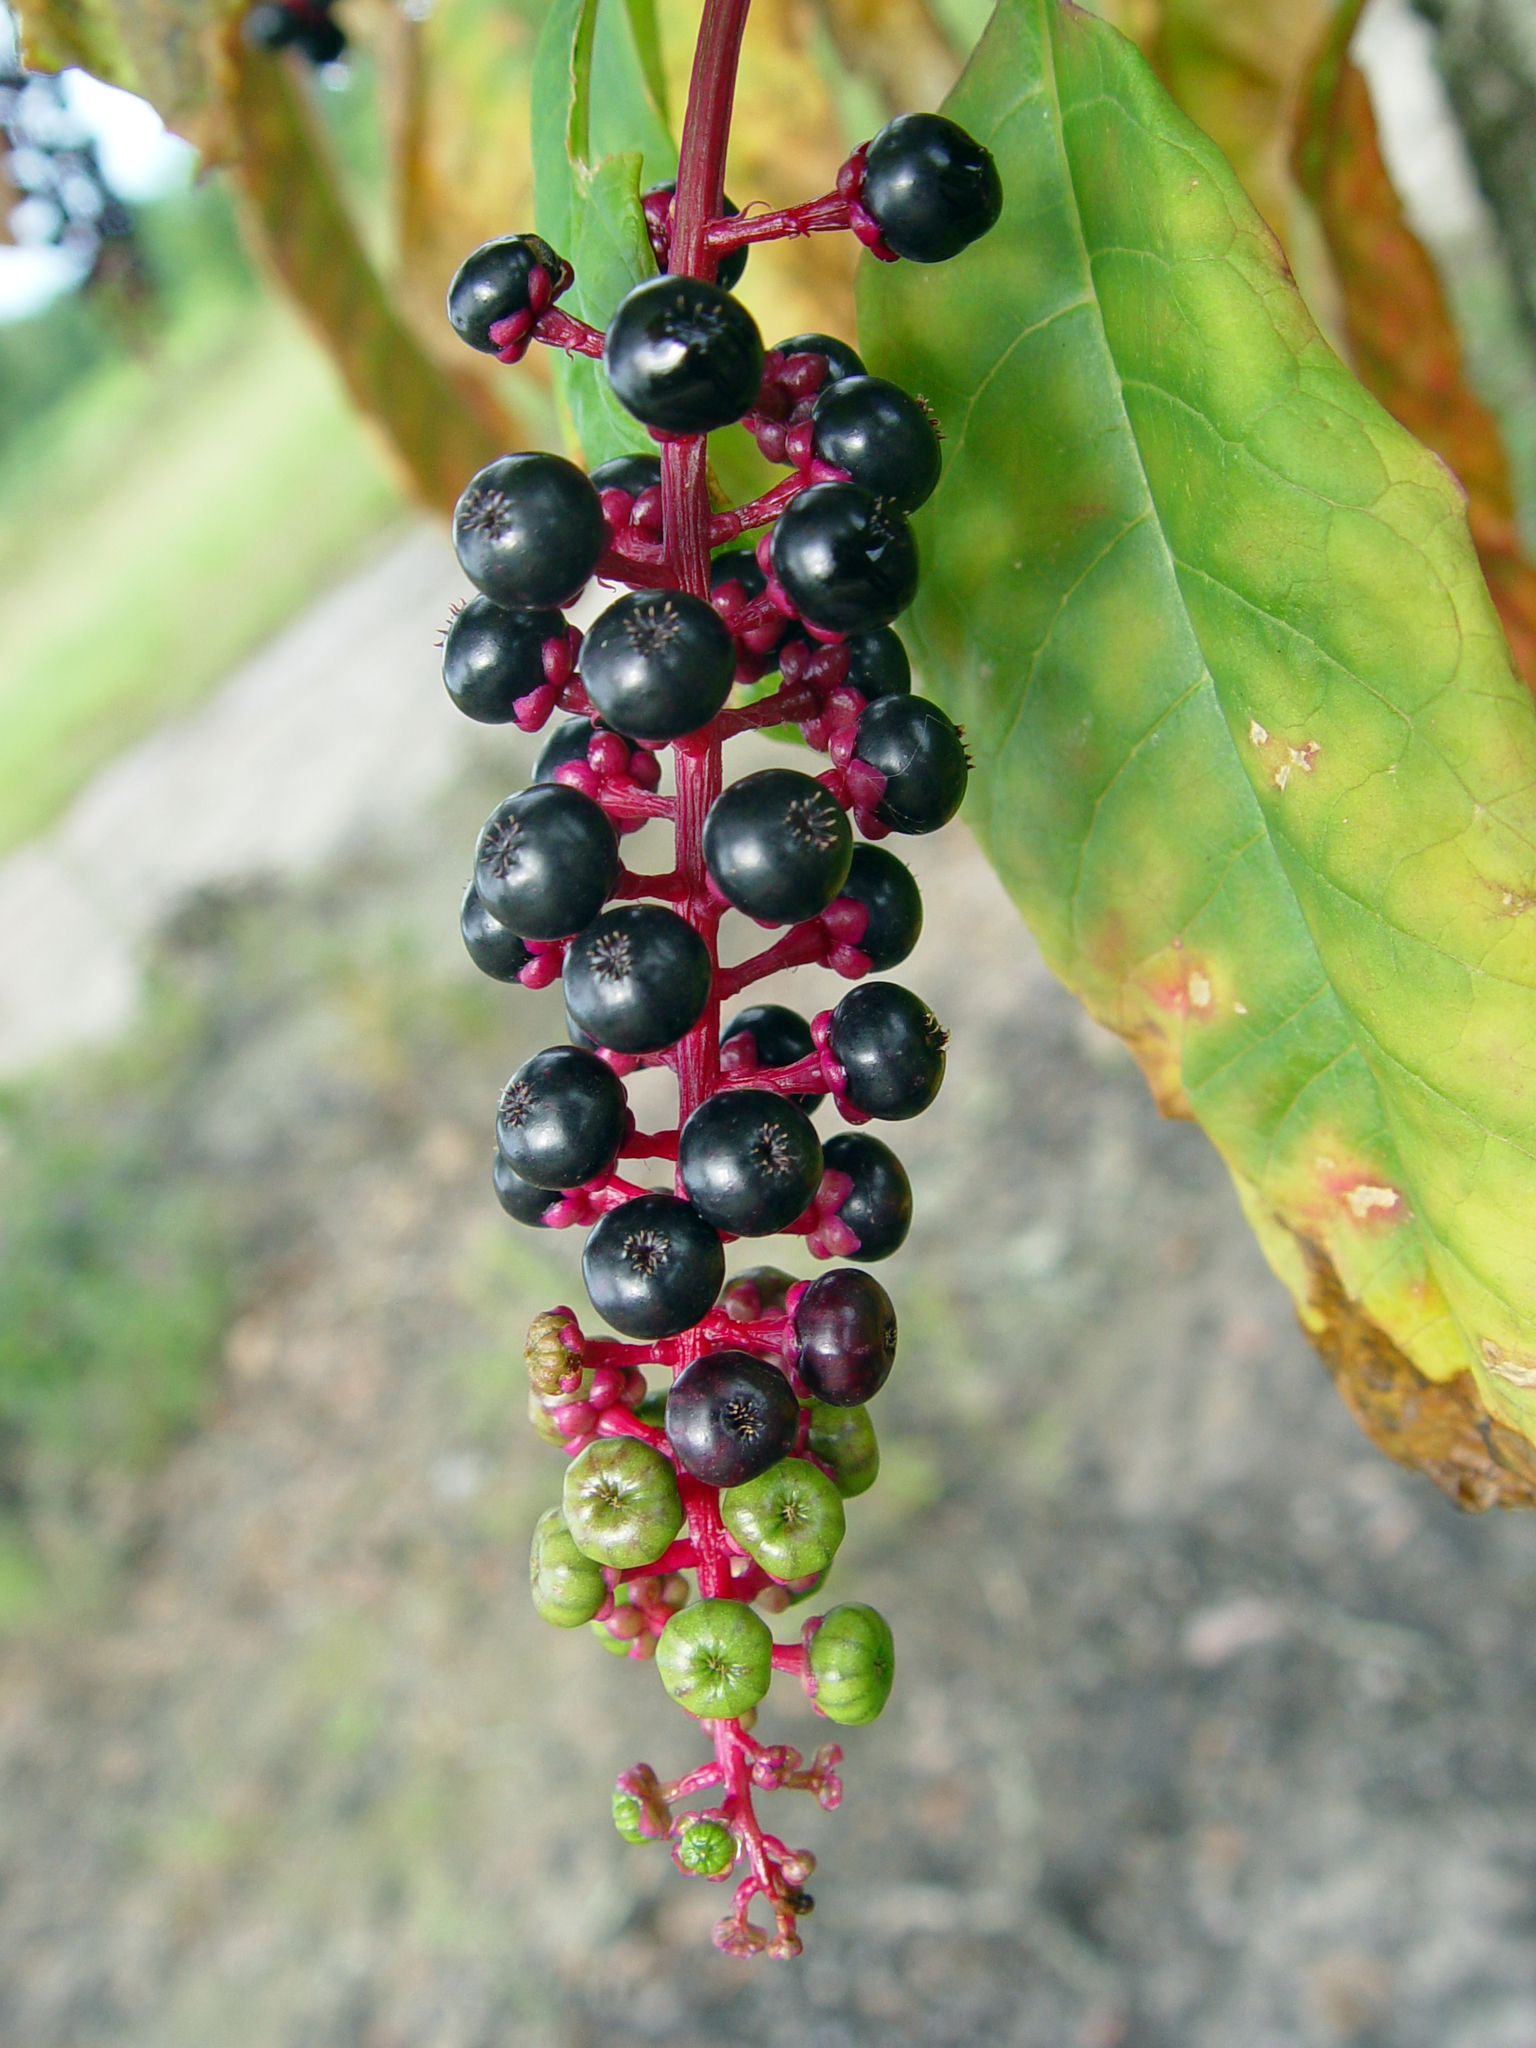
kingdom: Plantae
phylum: Tracheophyta
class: Magnoliopsida
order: Caryophyllales
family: Phytolaccaceae
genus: Phytolacca
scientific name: Phytolacca americana
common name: American pokeweed
